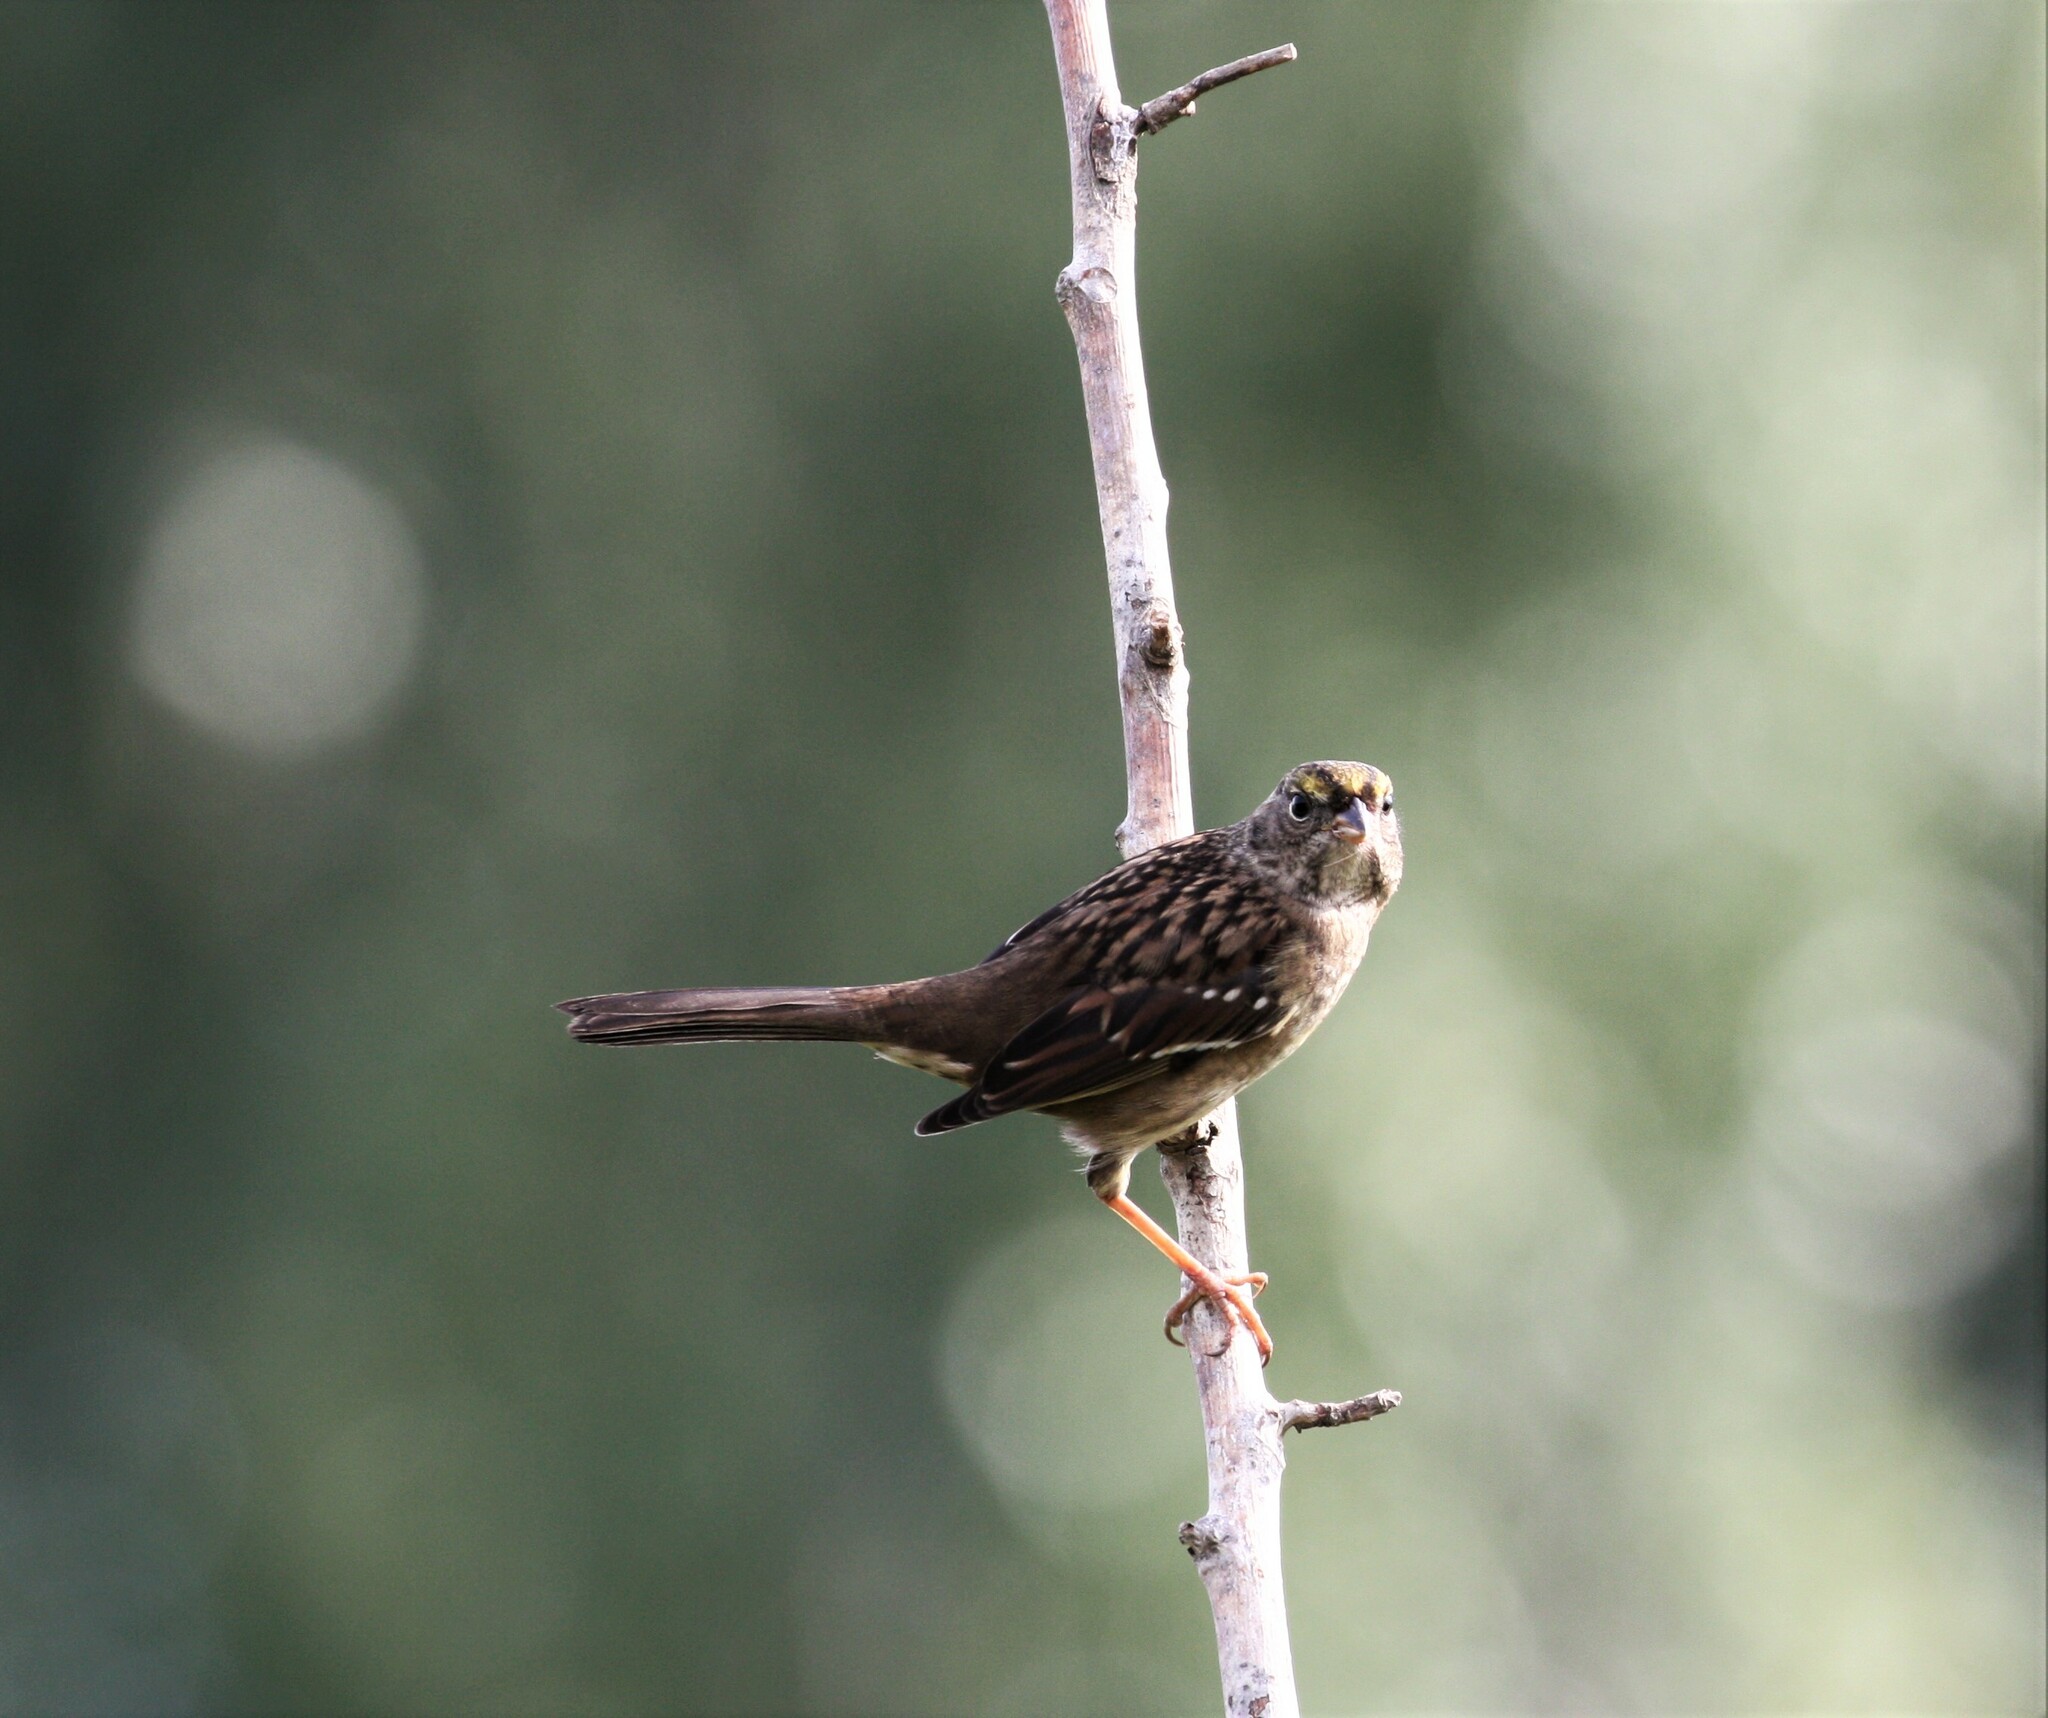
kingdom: Animalia
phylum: Chordata
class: Aves
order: Passeriformes
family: Passerellidae
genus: Zonotrichia
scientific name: Zonotrichia atricapilla
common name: Golden-crowned sparrow
